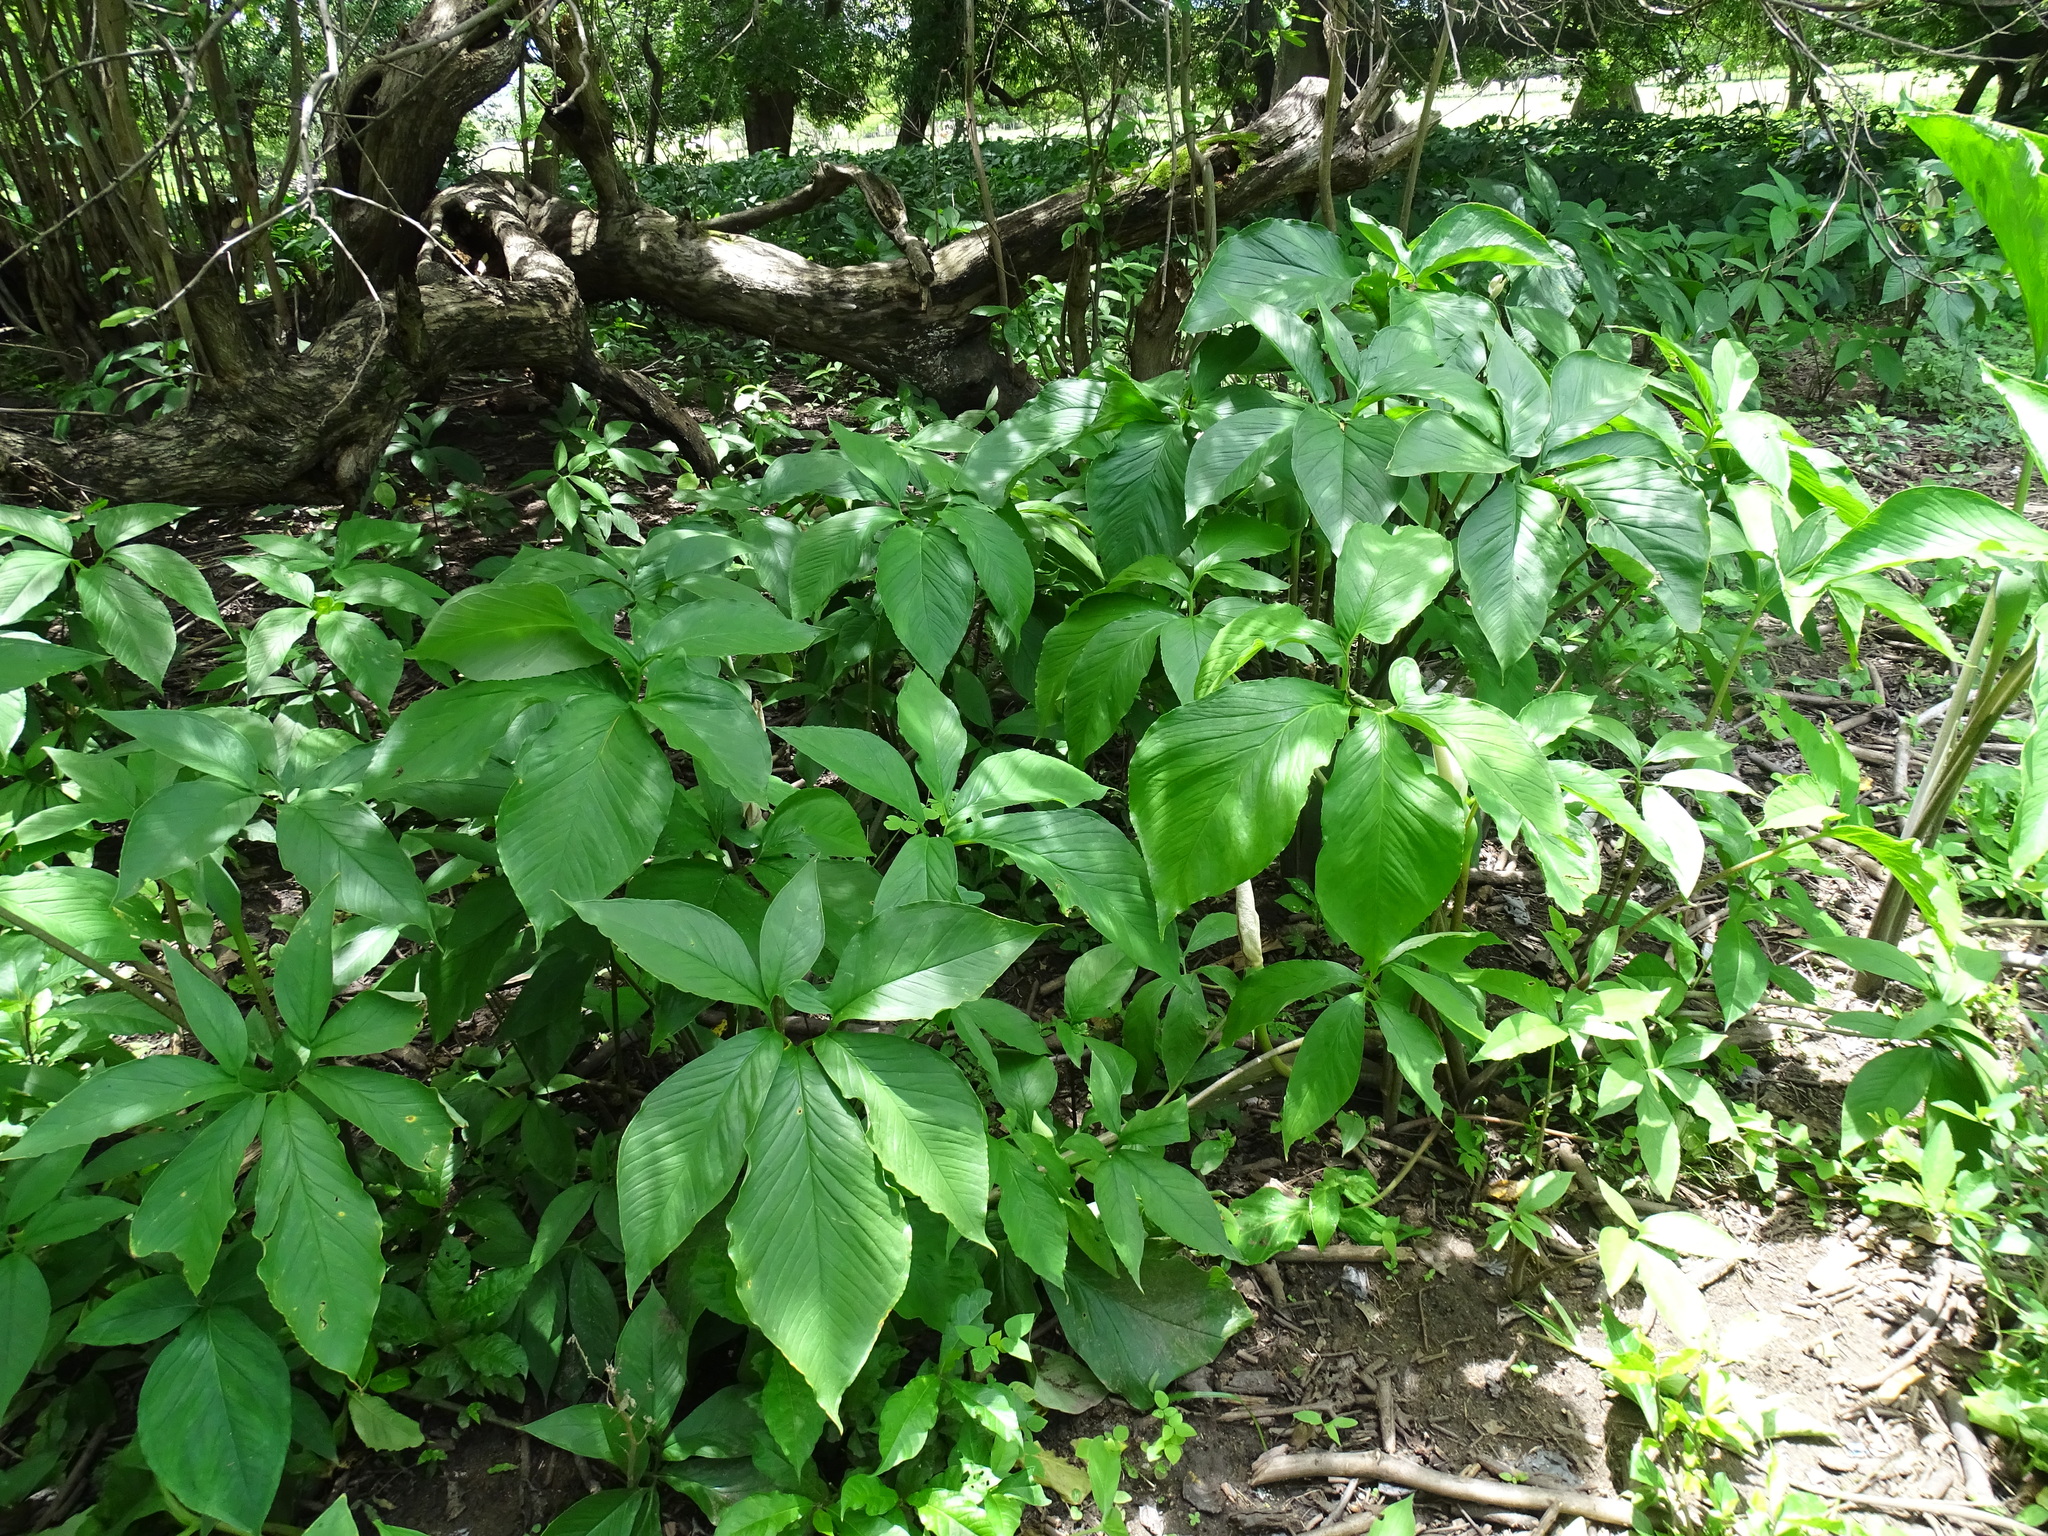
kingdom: Plantae
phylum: Tracheophyta
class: Liliopsida
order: Alismatales
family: Araceae
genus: Xanthosoma
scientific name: Xanthosoma wendlandii
